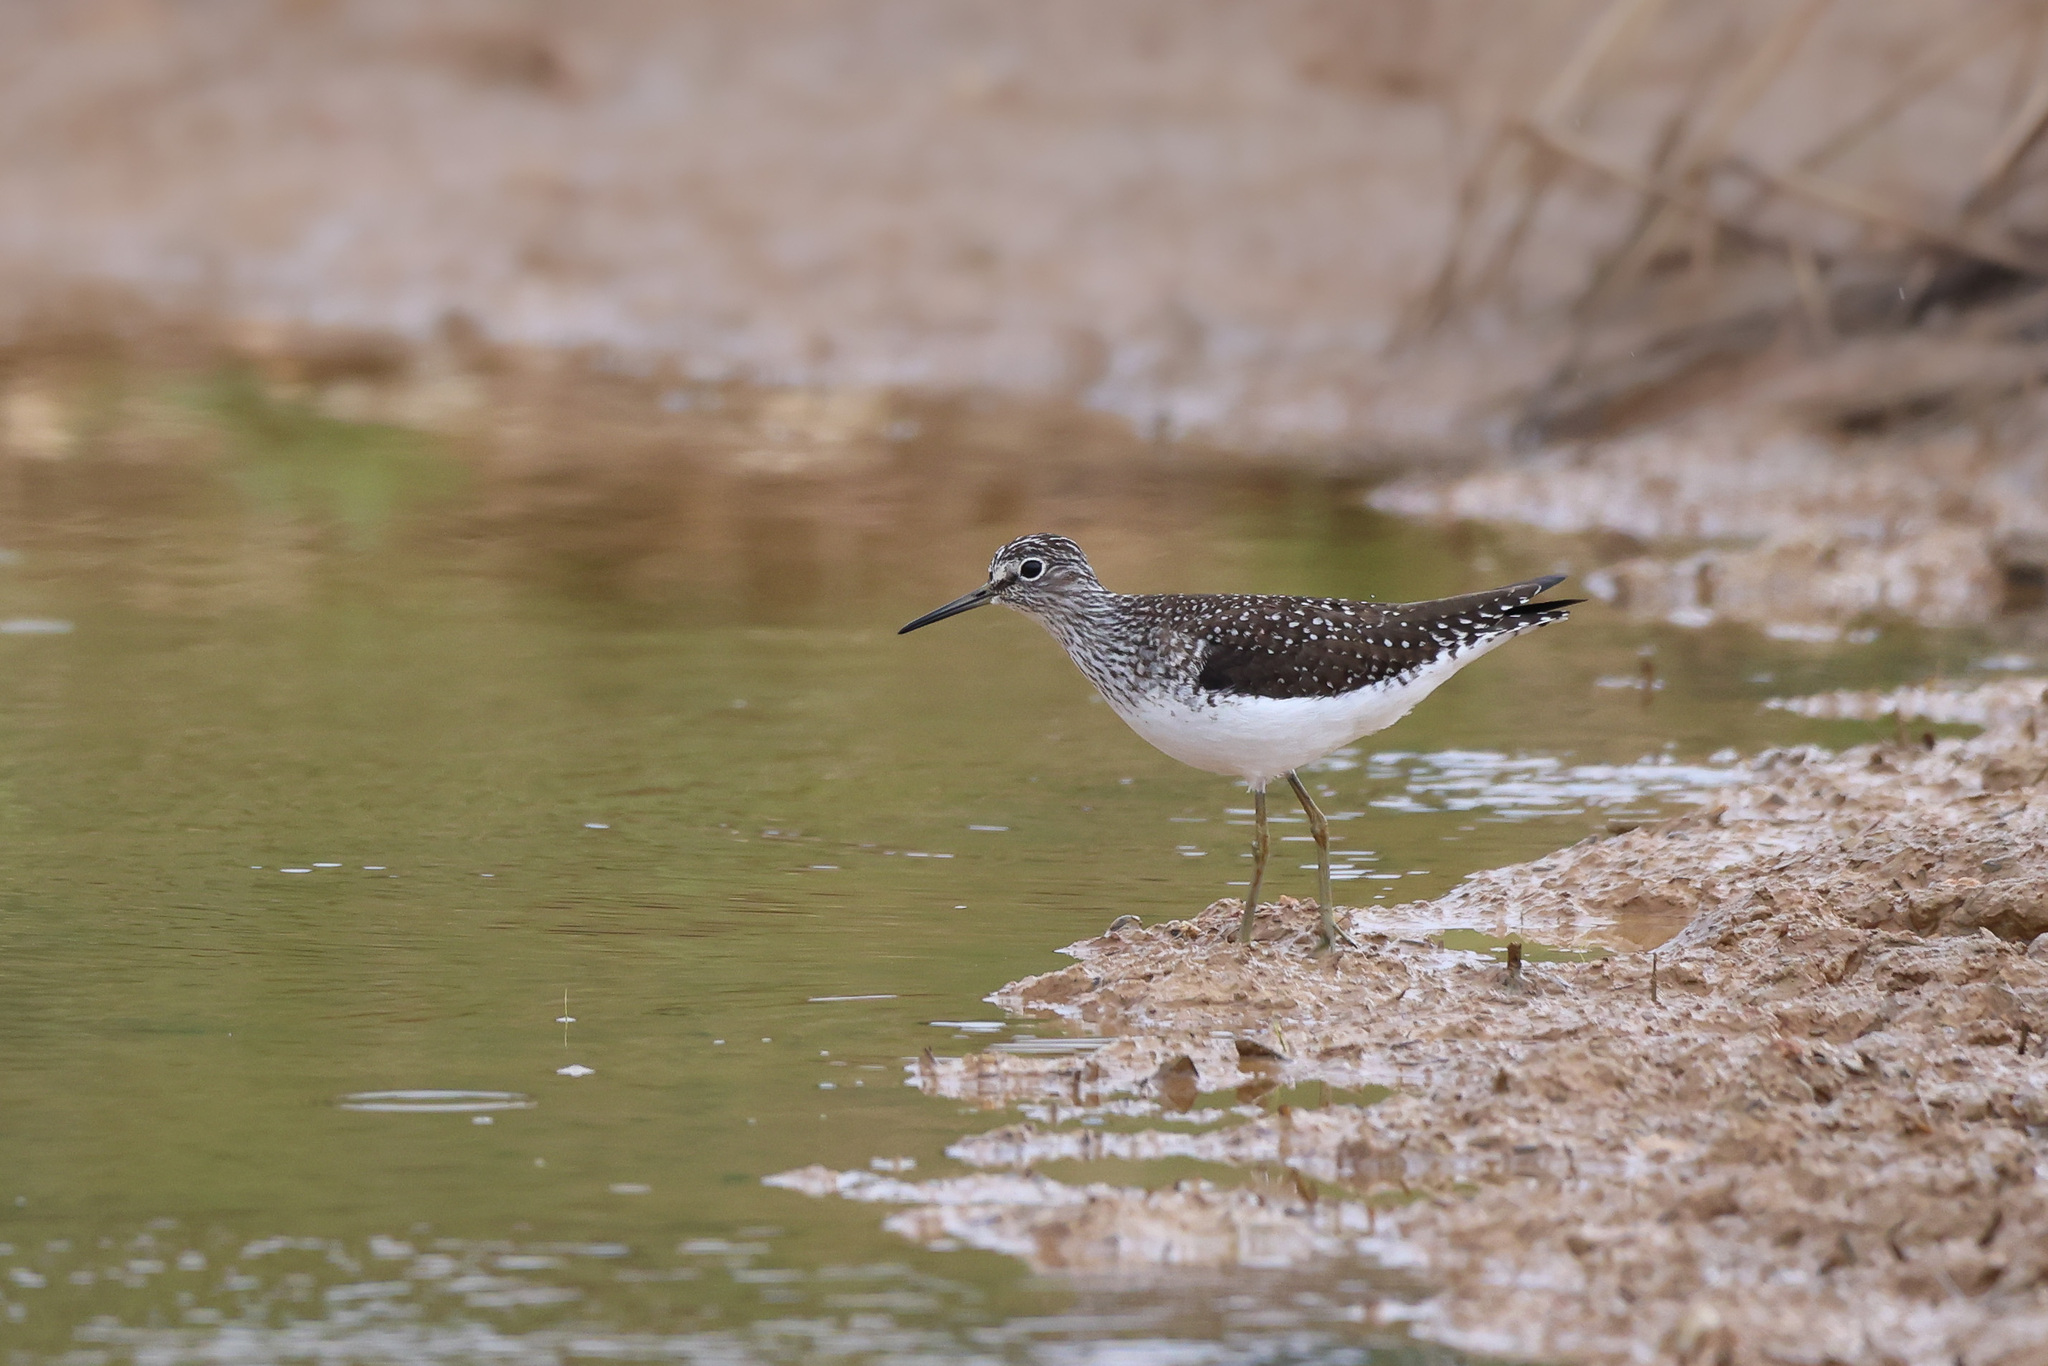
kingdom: Animalia
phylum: Chordata
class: Aves
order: Charadriiformes
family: Scolopacidae
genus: Tringa
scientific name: Tringa solitaria
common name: Solitary sandpiper
